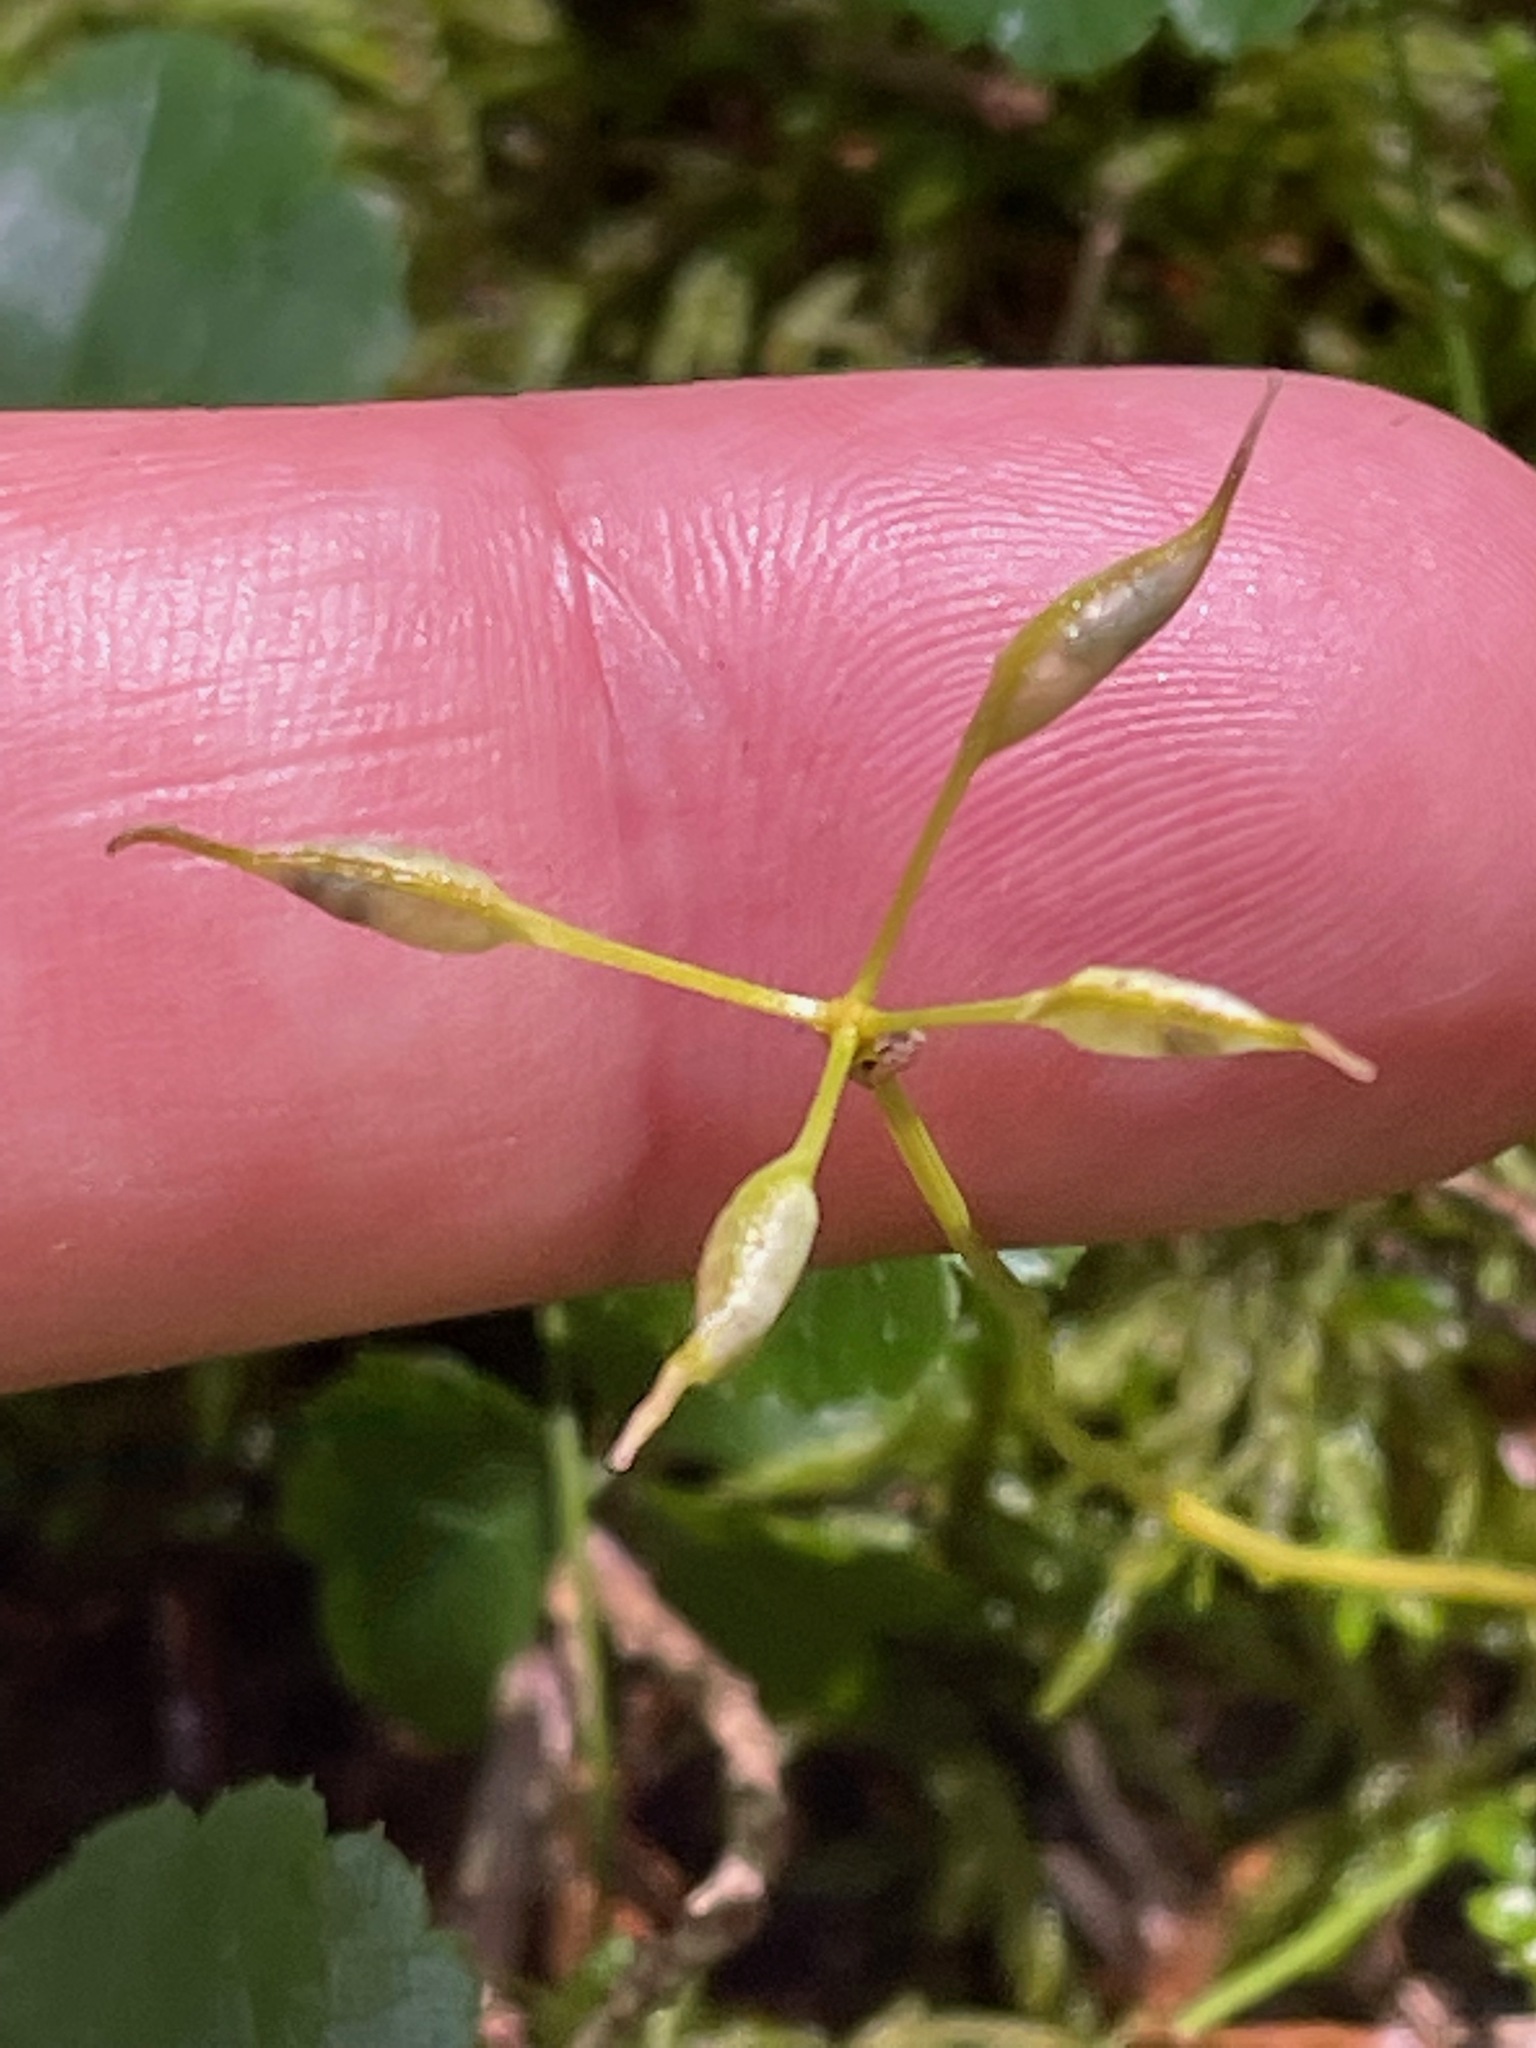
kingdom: Plantae
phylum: Tracheophyta
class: Magnoliopsida
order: Ranunculales
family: Ranunculaceae
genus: Coptis
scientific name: Coptis trifolia
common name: Canker-root
